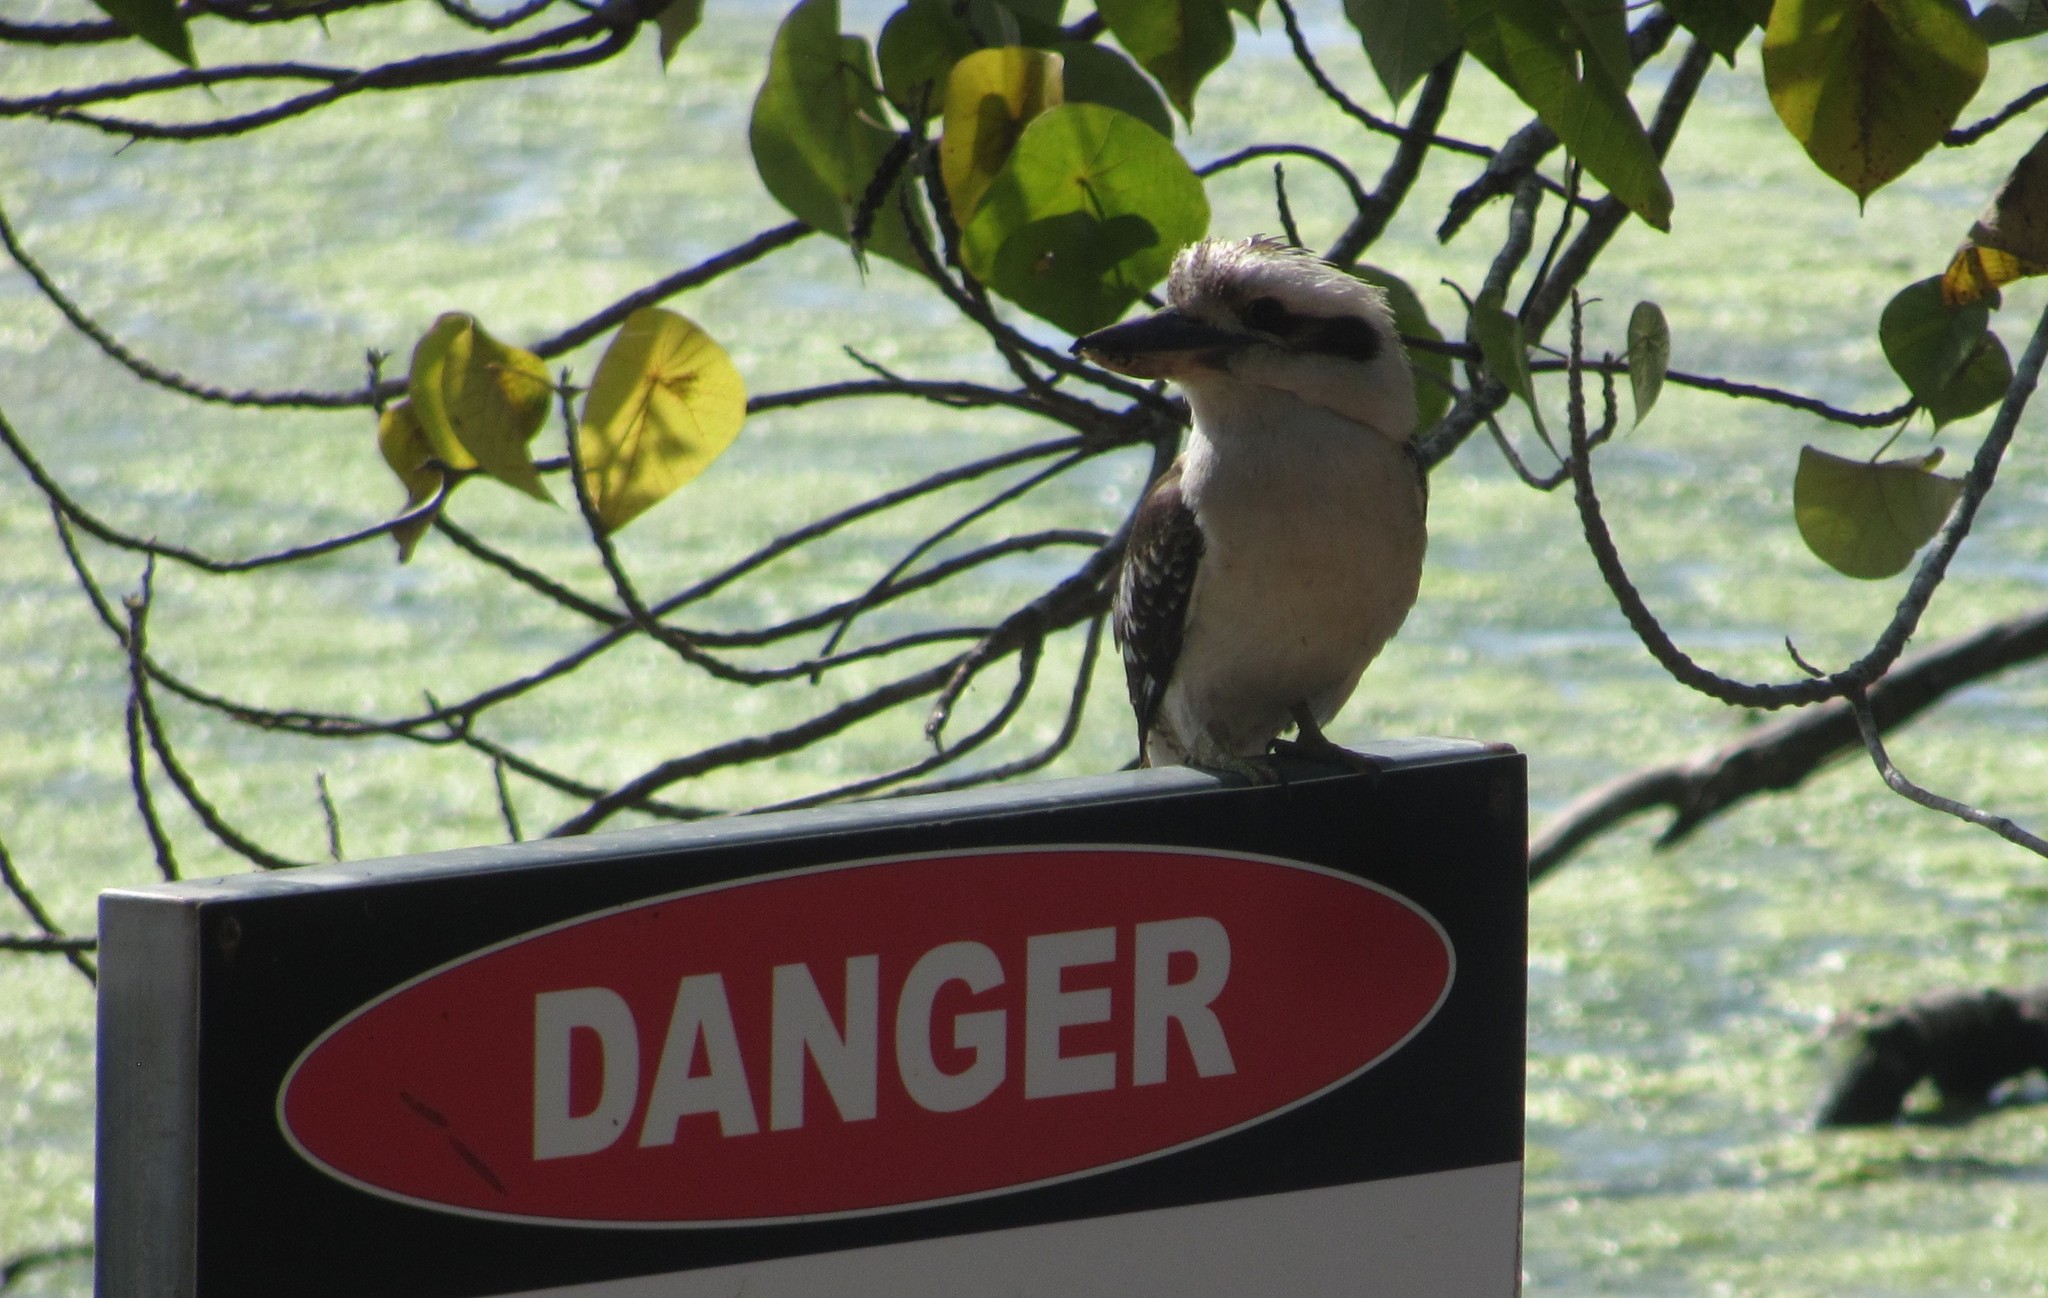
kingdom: Animalia
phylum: Chordata
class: Aves
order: Coraciiformes
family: Alcedinidae
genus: Dacelo
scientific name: Dacelo novaeguineae
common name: Laughing kookaburra
